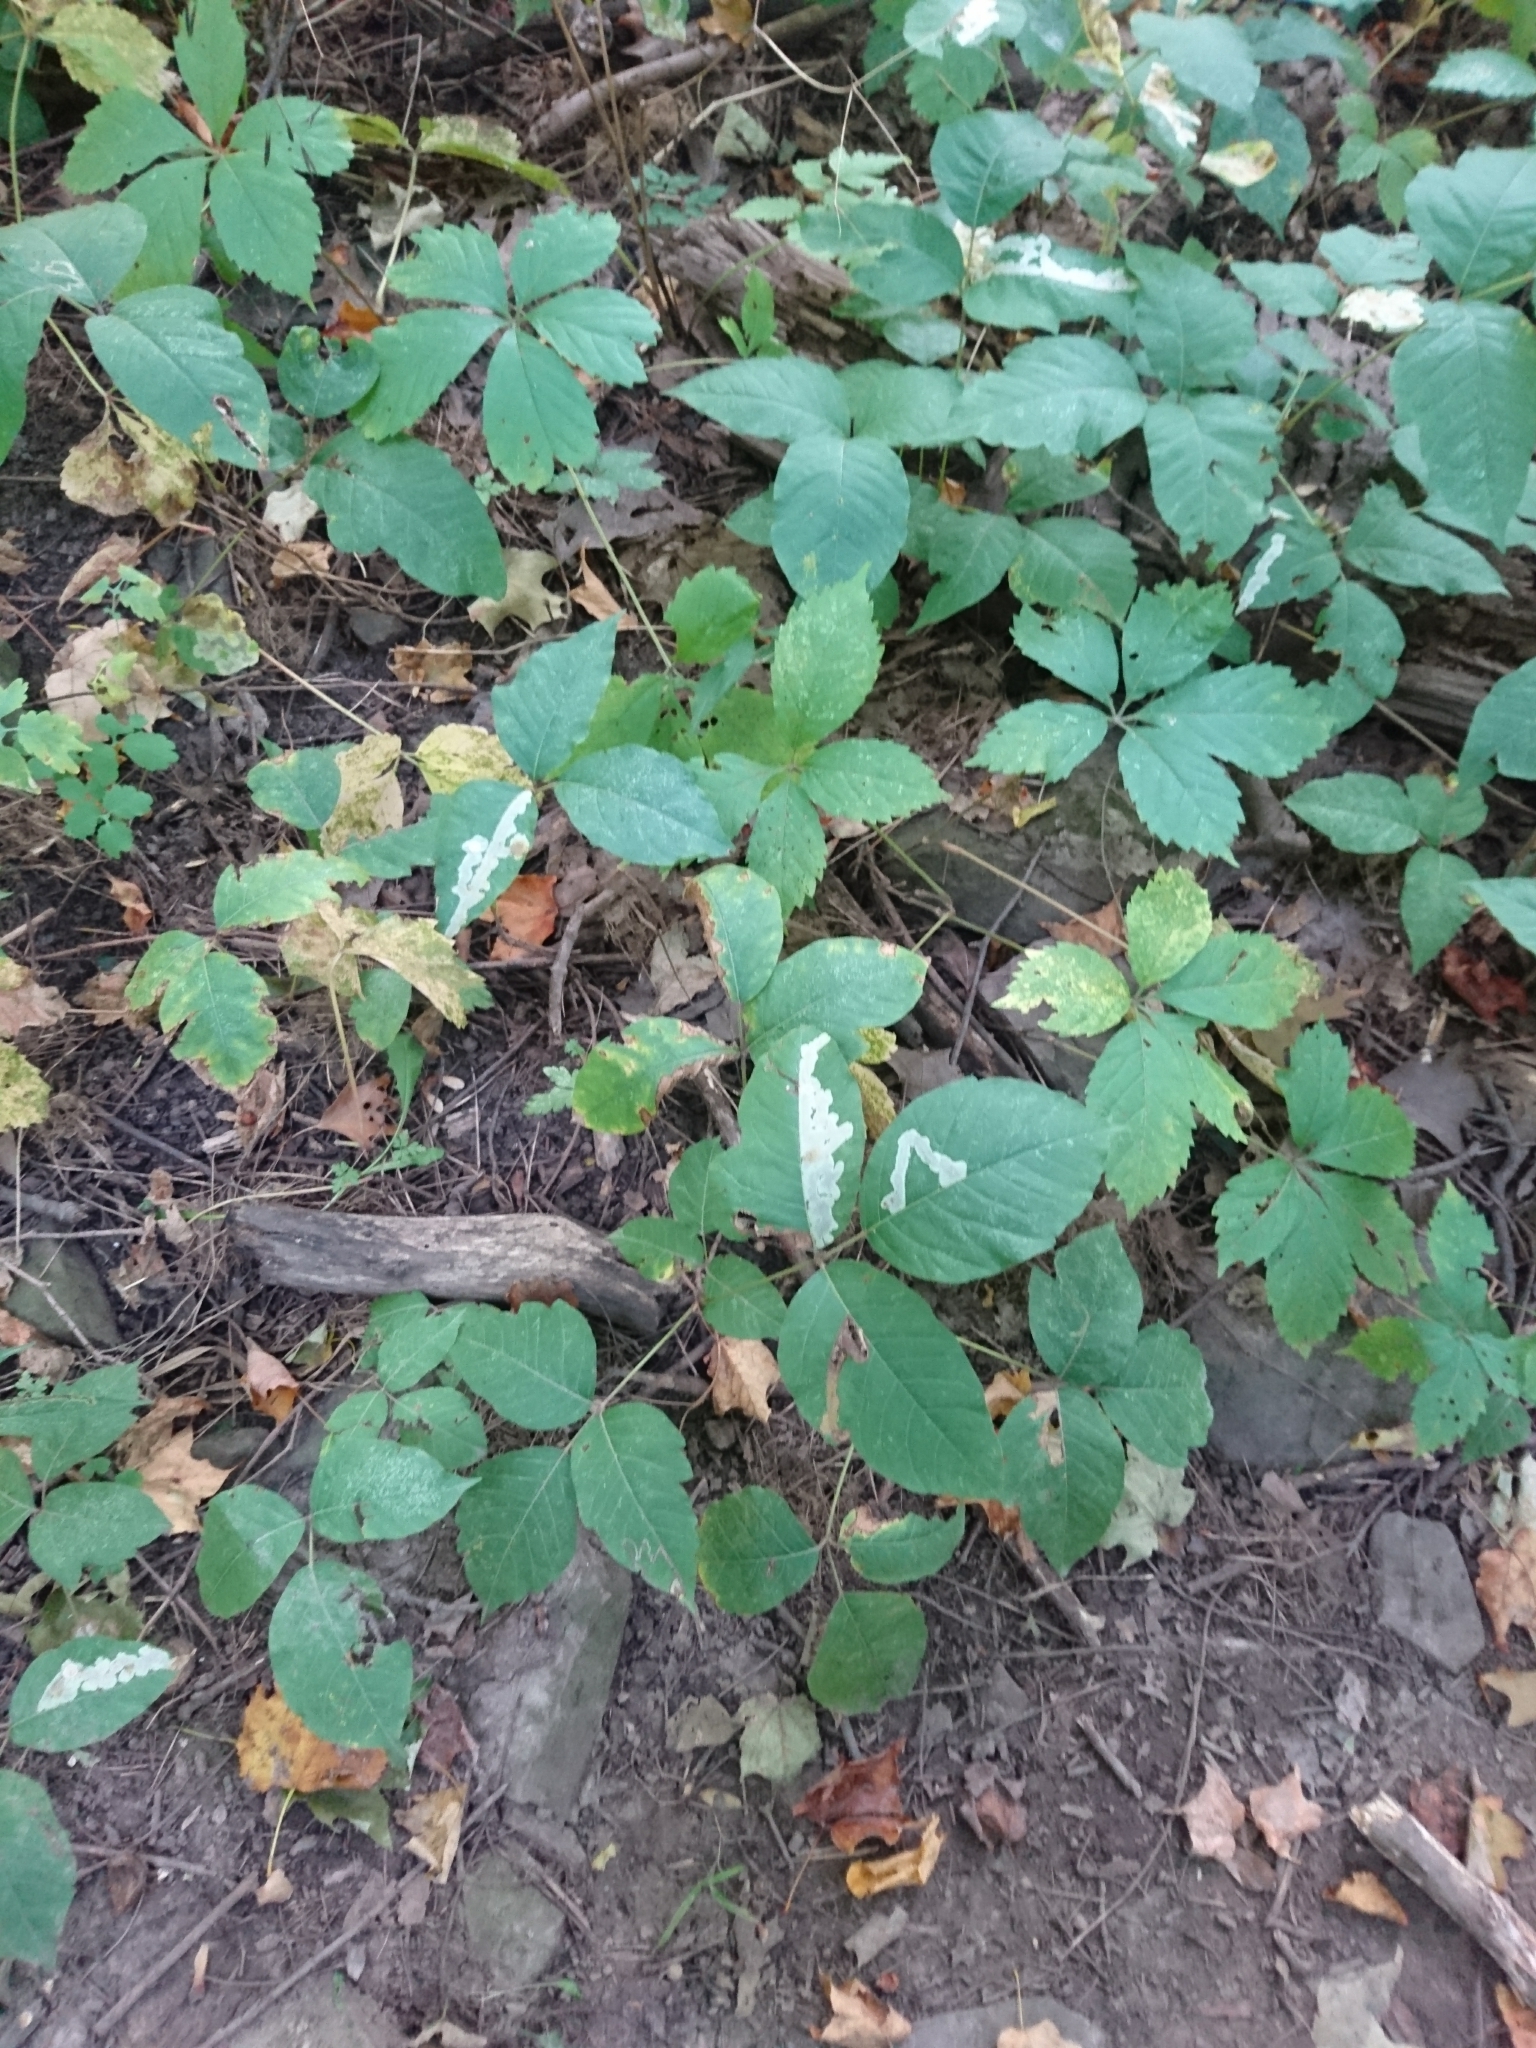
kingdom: Plantae
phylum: Tracheophyta
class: Magnoliopsida
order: Sapindales
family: Anacardiaceae
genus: Toxicodendron
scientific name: Toxicodendron radicans
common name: Poison ivy
